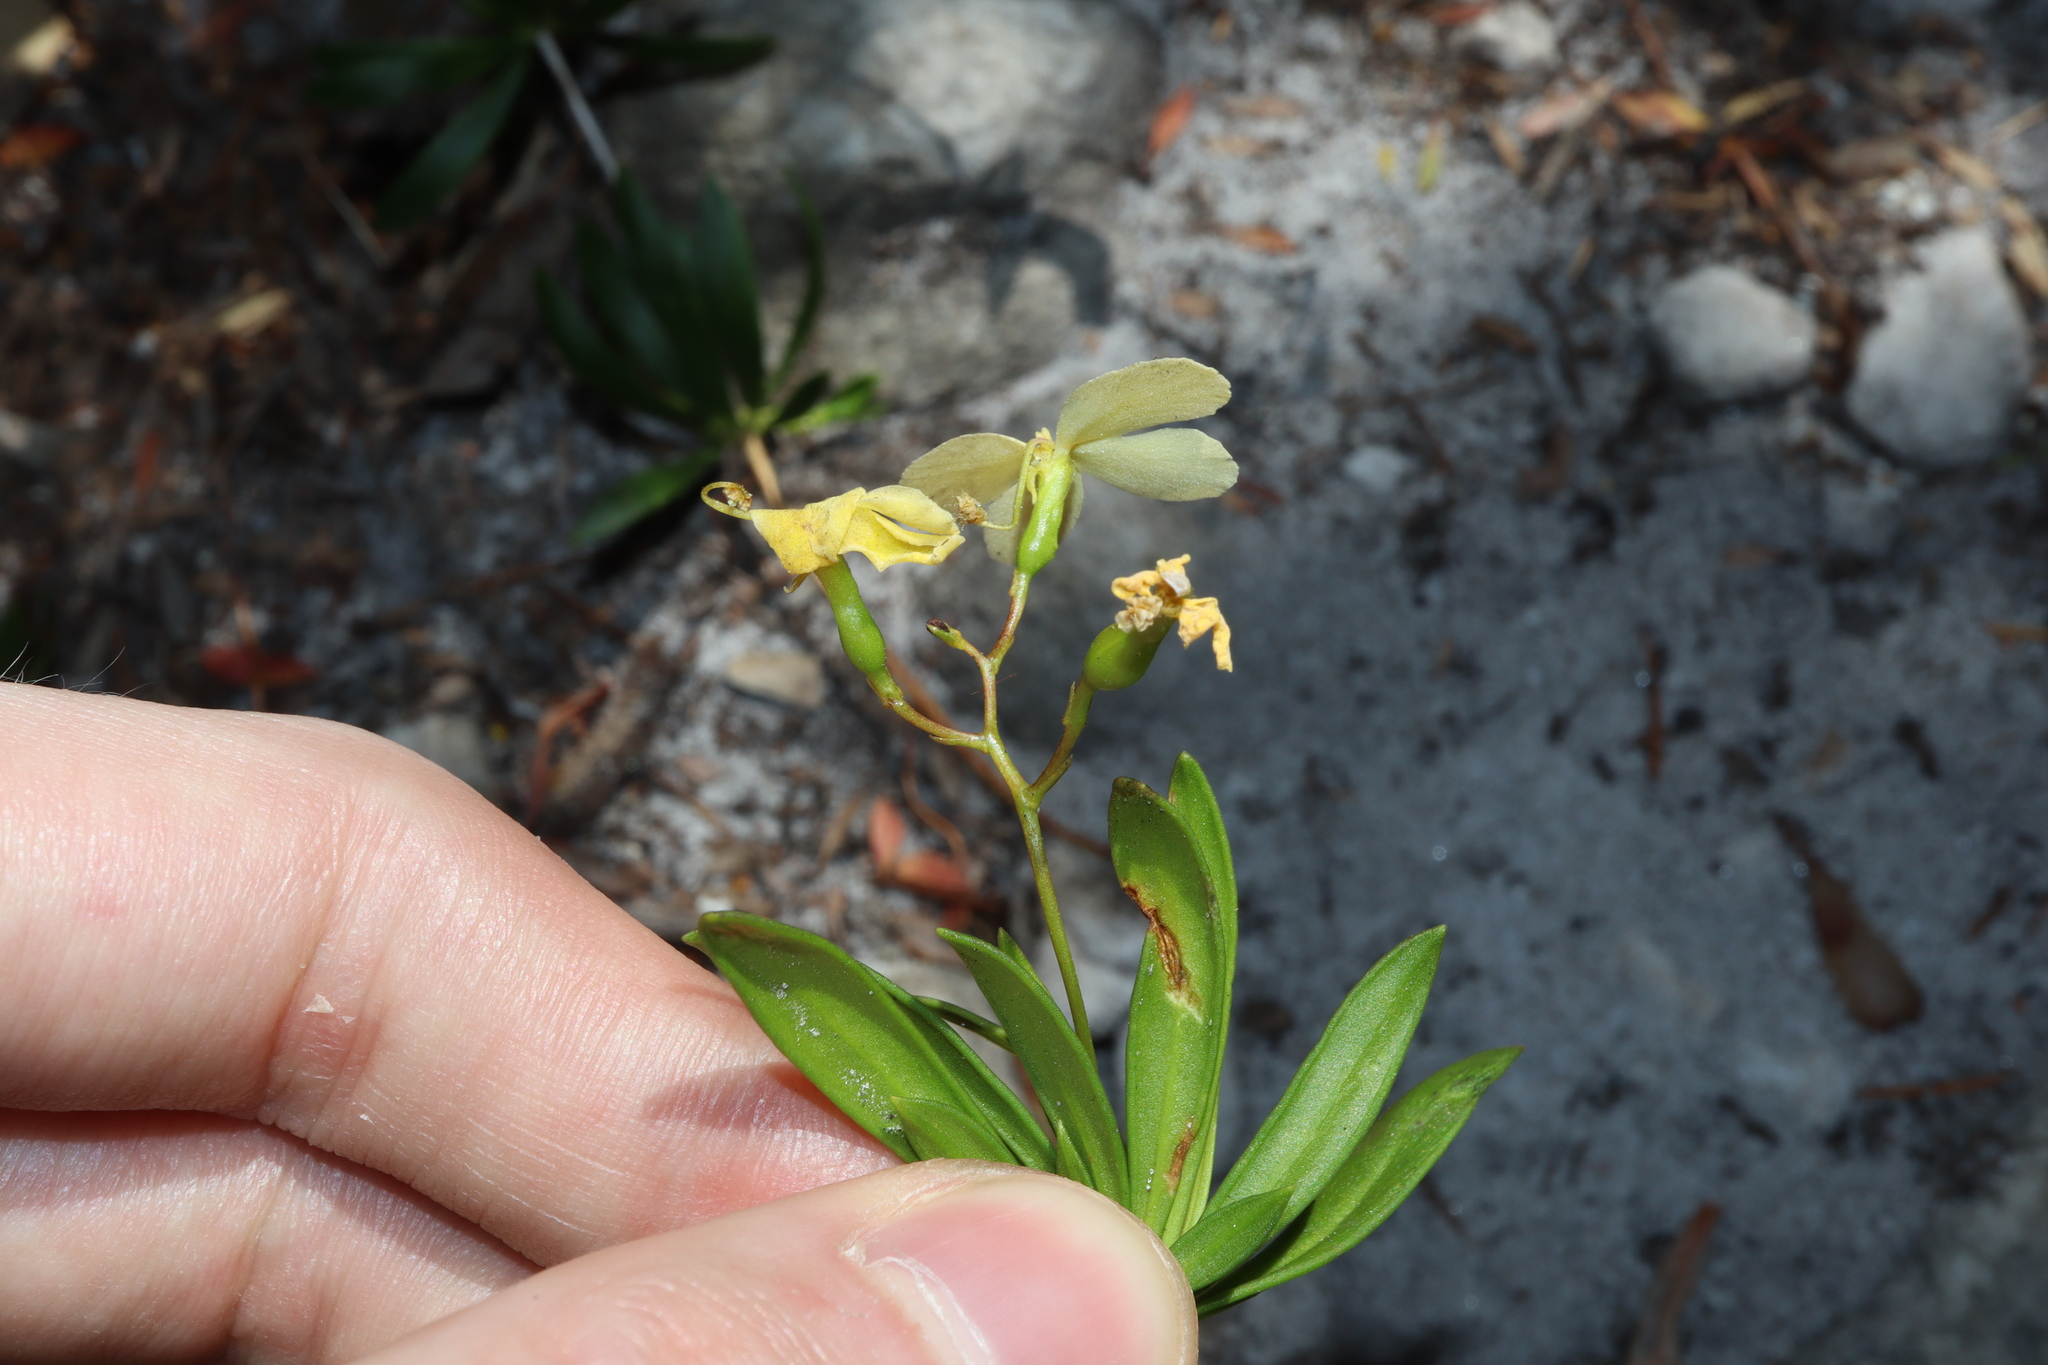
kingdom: Plantae
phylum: Tracheophyta
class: Magnoliopsida
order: Asterales
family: Stylidiaceae
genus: Stylidium
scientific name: Stylidium galioides
